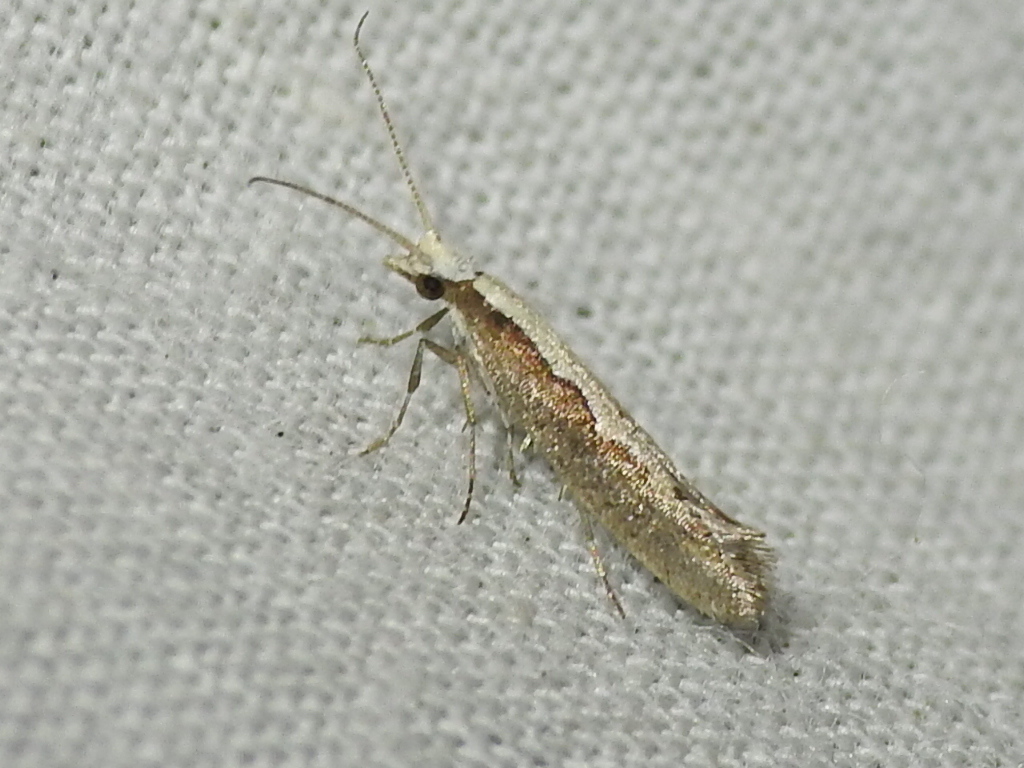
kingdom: Animalia
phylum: Arthropoda
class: Insecta
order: Lepidoptera
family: Plutellidae
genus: Plutella
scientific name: Plutella xylostella
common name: Diamond-back moth
